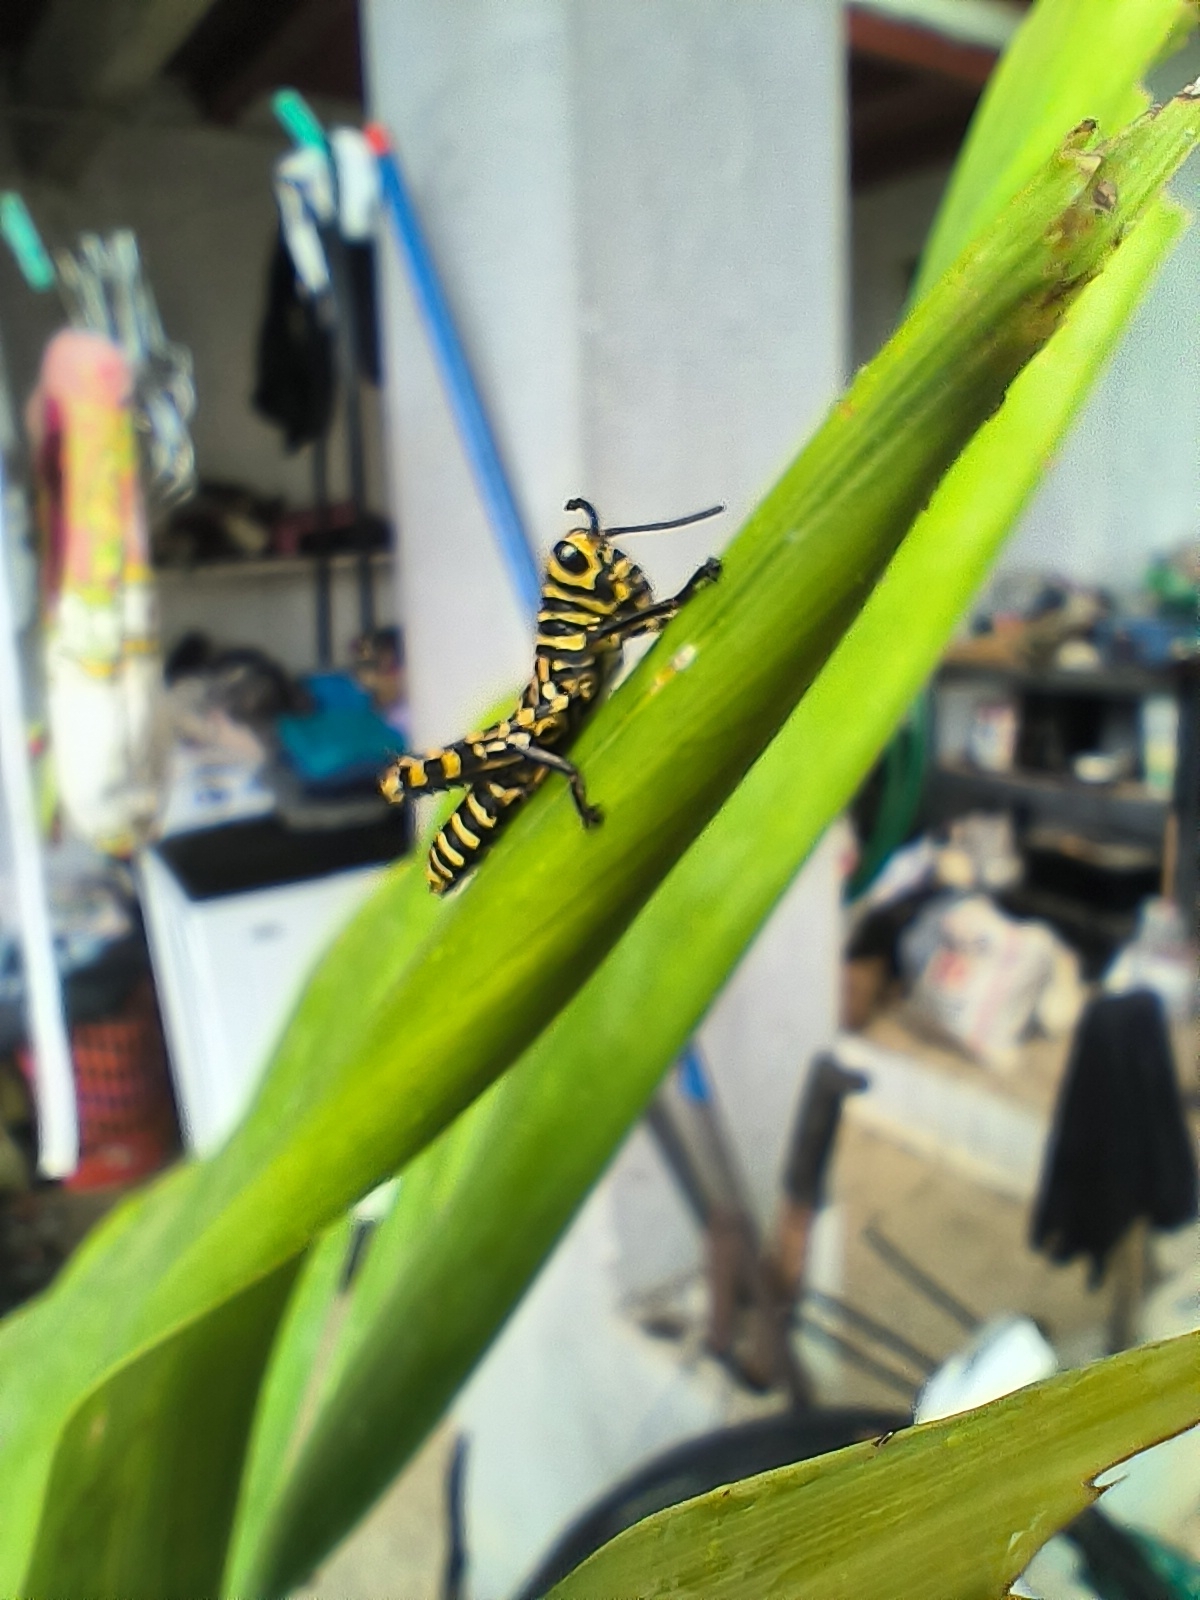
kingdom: Animalia
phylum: Arthropoda
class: Insecta
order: Orthoptera
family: Romaleidae
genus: Tropidacris
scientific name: Tropidacris cristata
